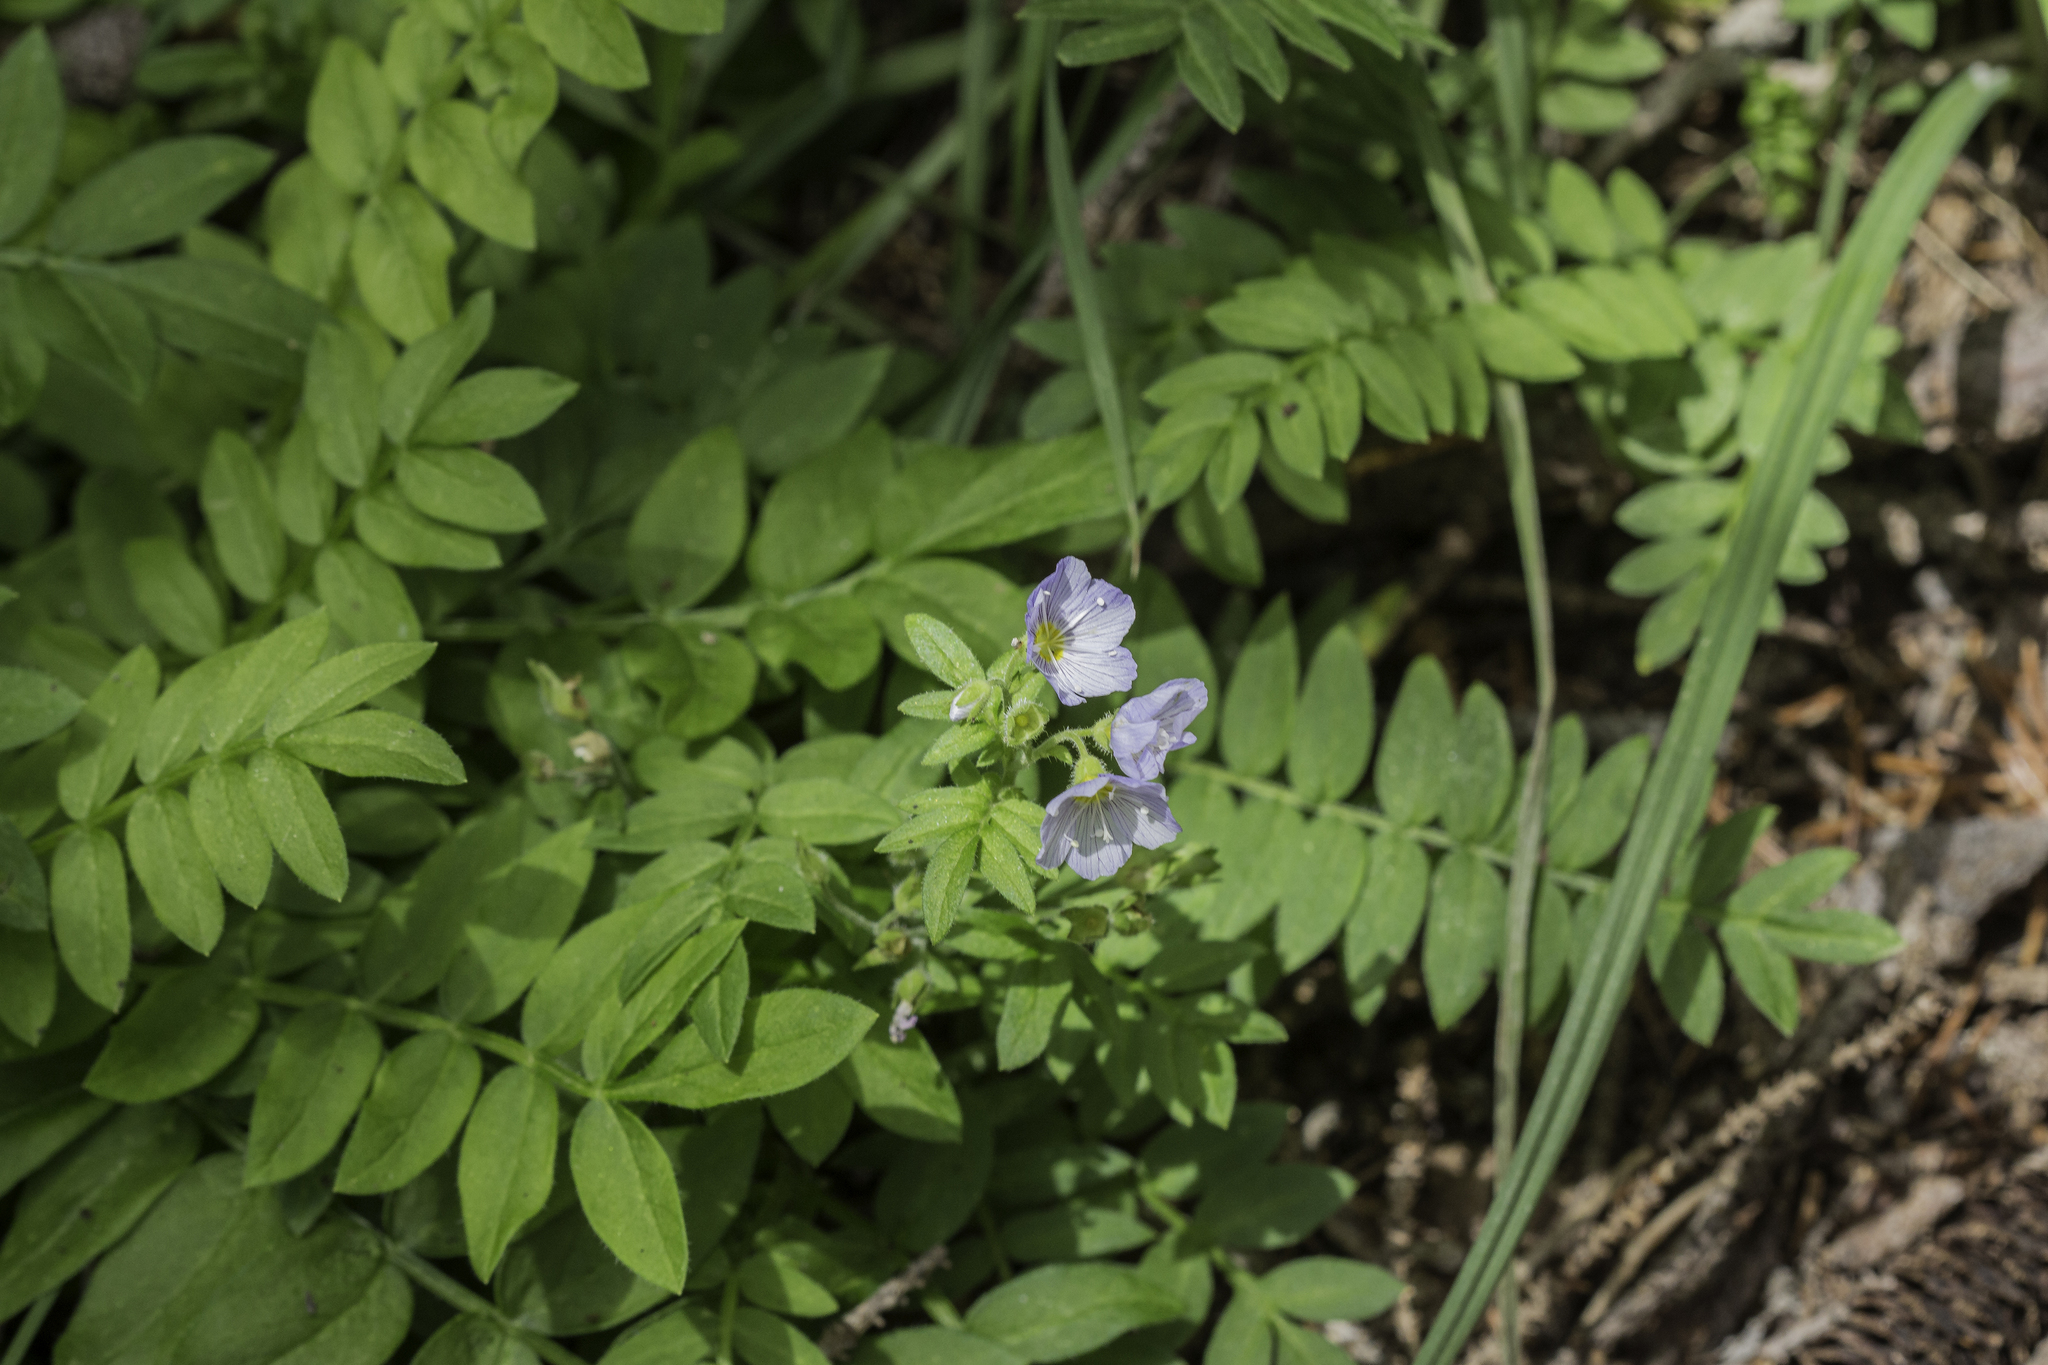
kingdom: Plantae
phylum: Tracheophyta
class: Magnoliopsida
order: Ericales
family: Polemoniaceae
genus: Polemonium
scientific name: Polemonium pulcherrimum
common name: Short jacob's-ladder
